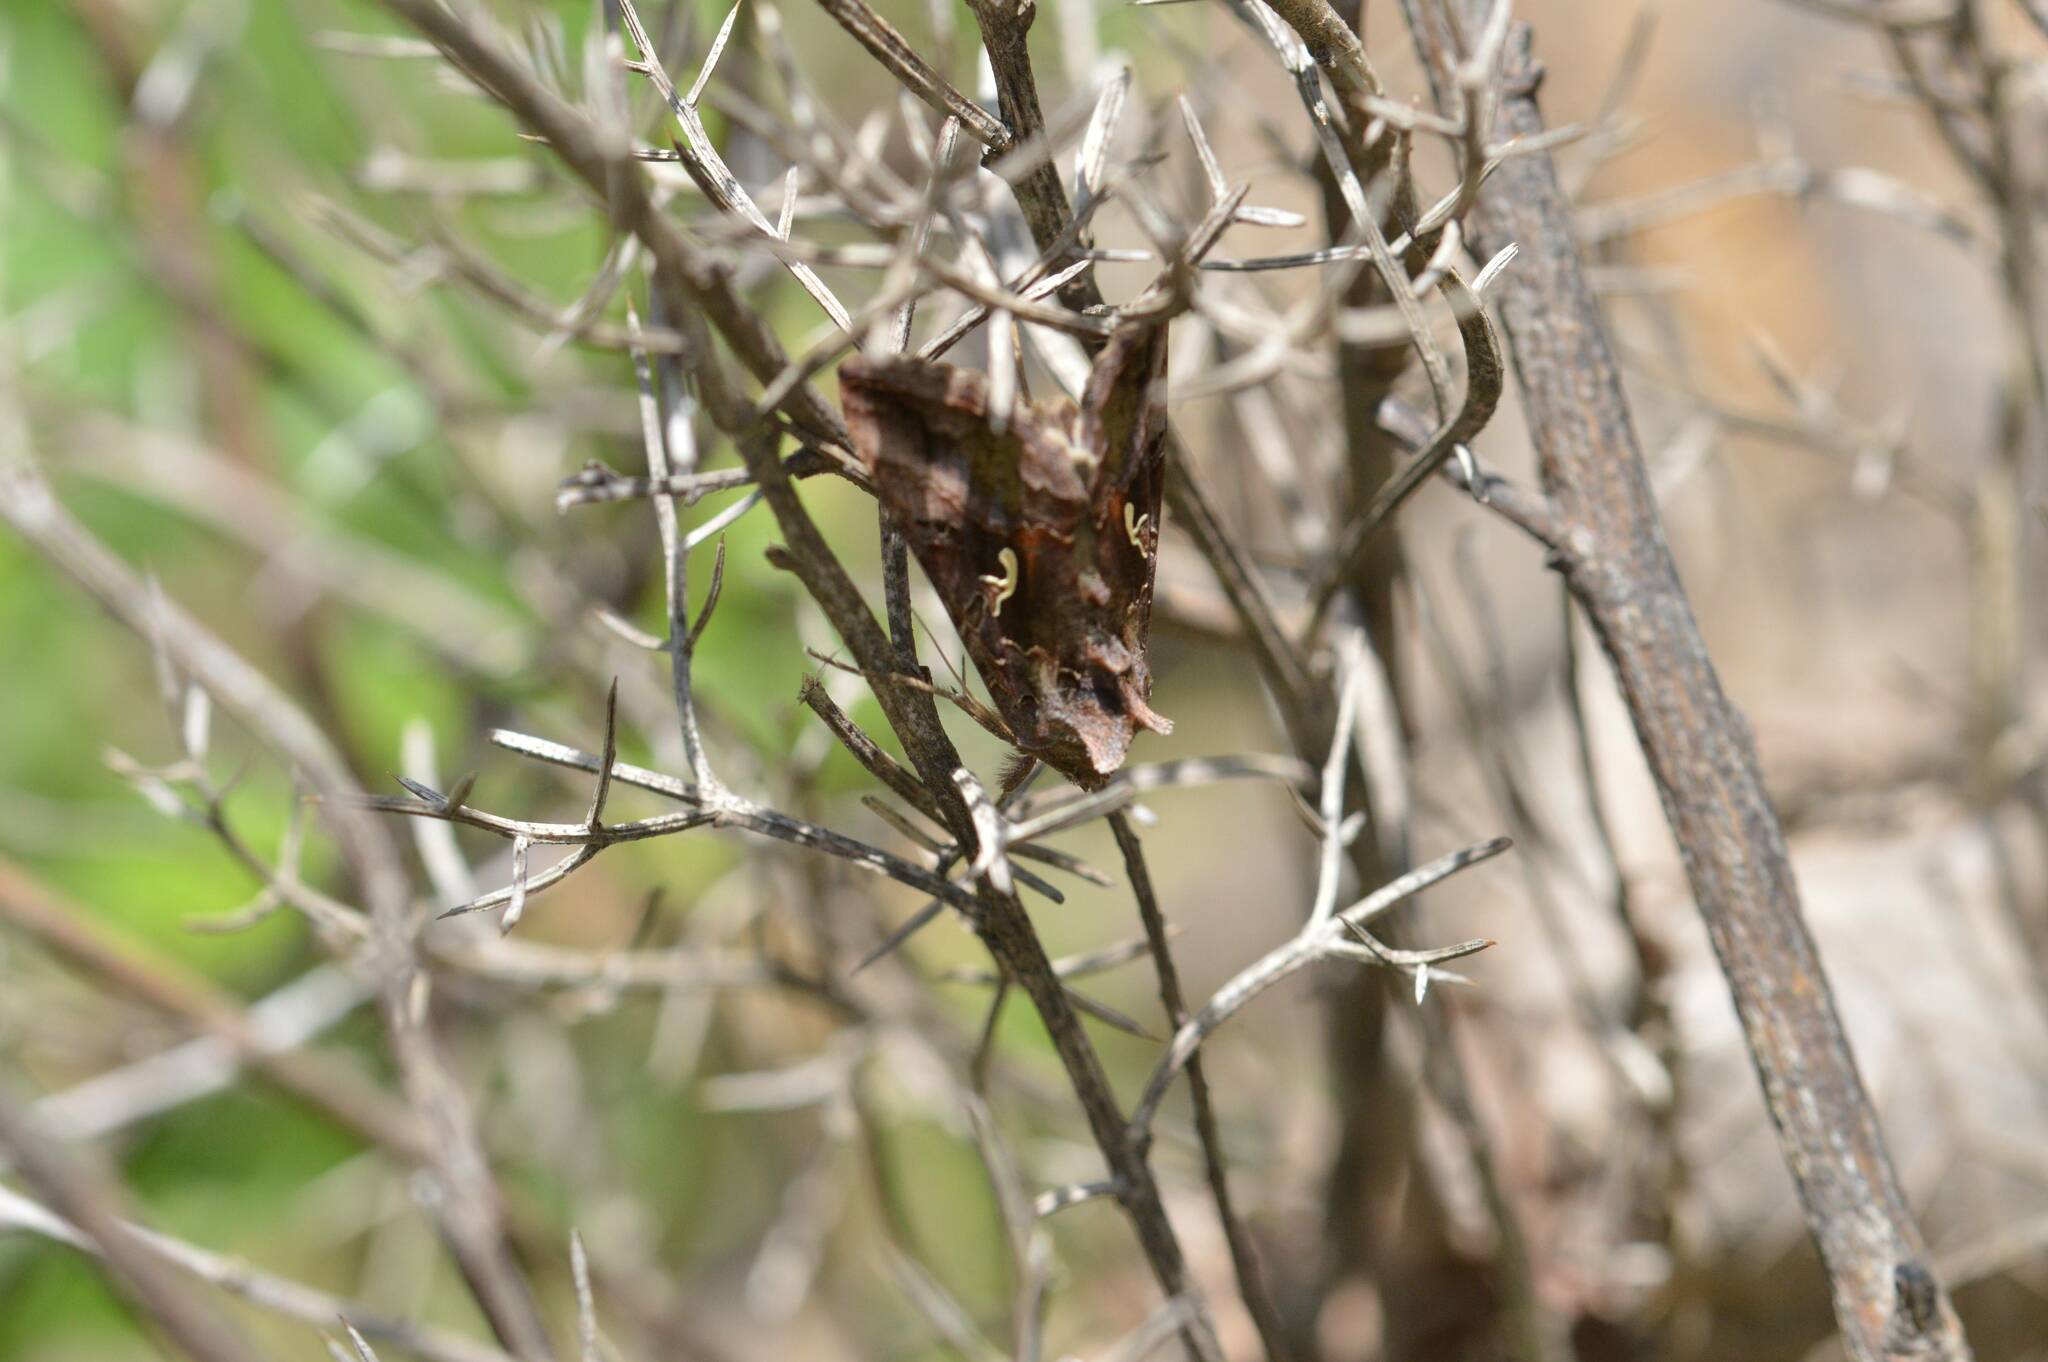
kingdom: Animalia
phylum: Arthropoda
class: Insecta
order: Lepidoptera
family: Noctuidae
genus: Autographa
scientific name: Autographa gamma
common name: Silver y
